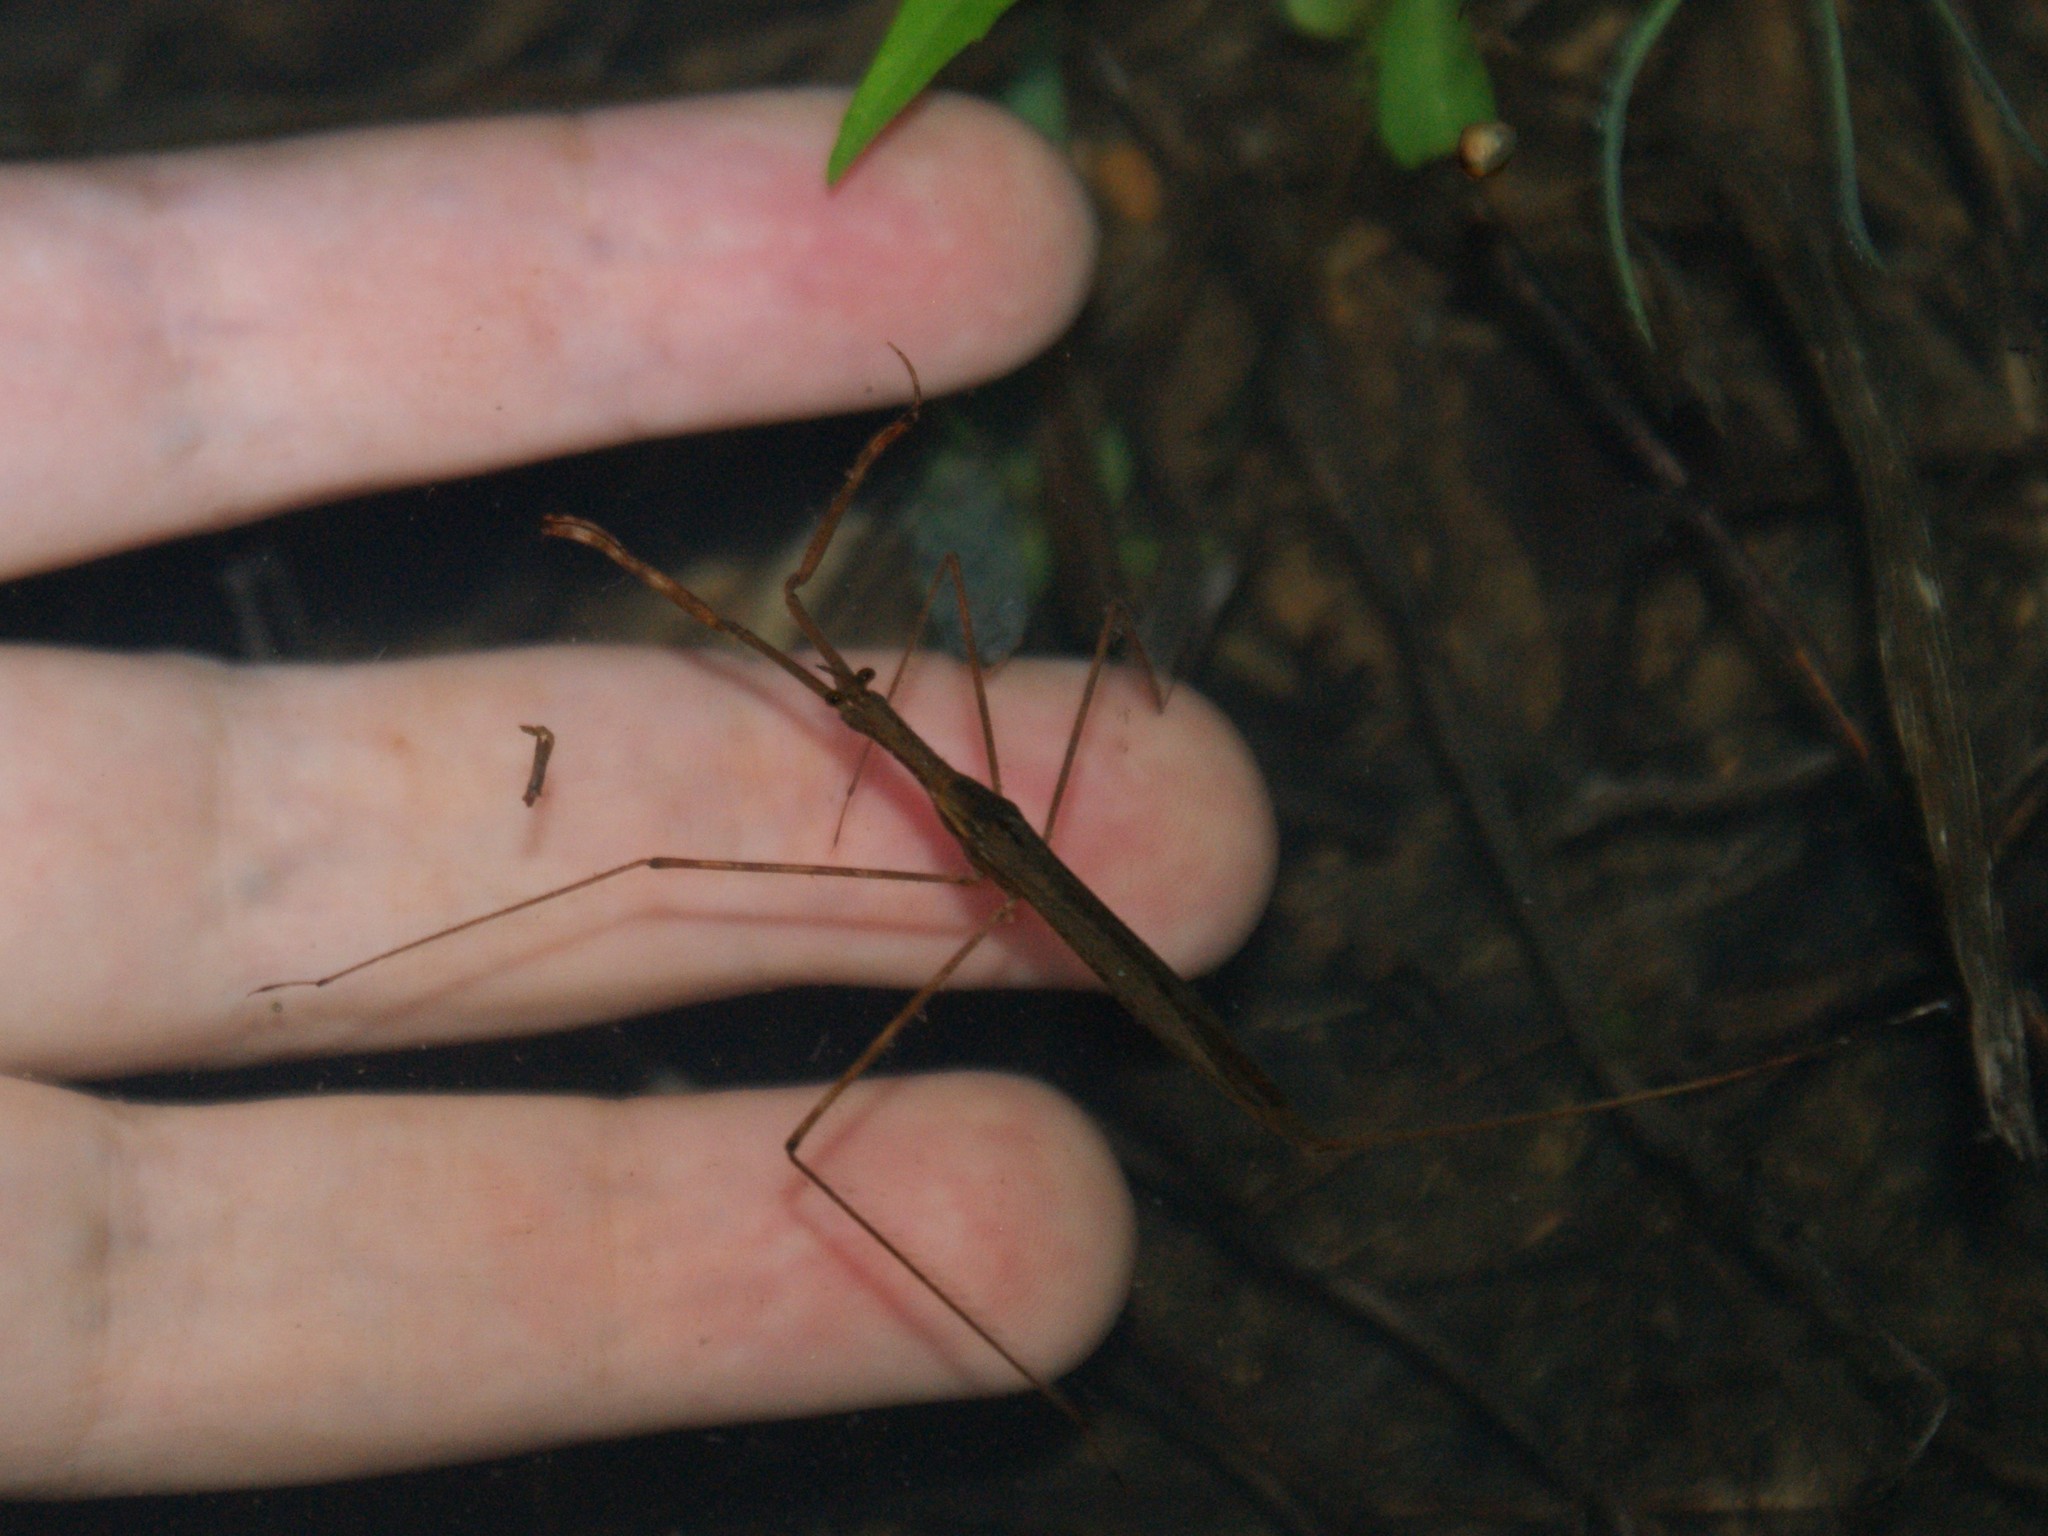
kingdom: Animalia
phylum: Arthropoda
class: Insecta
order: Hemiptera
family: Nepidae
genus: Ranatra
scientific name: Ranatra
